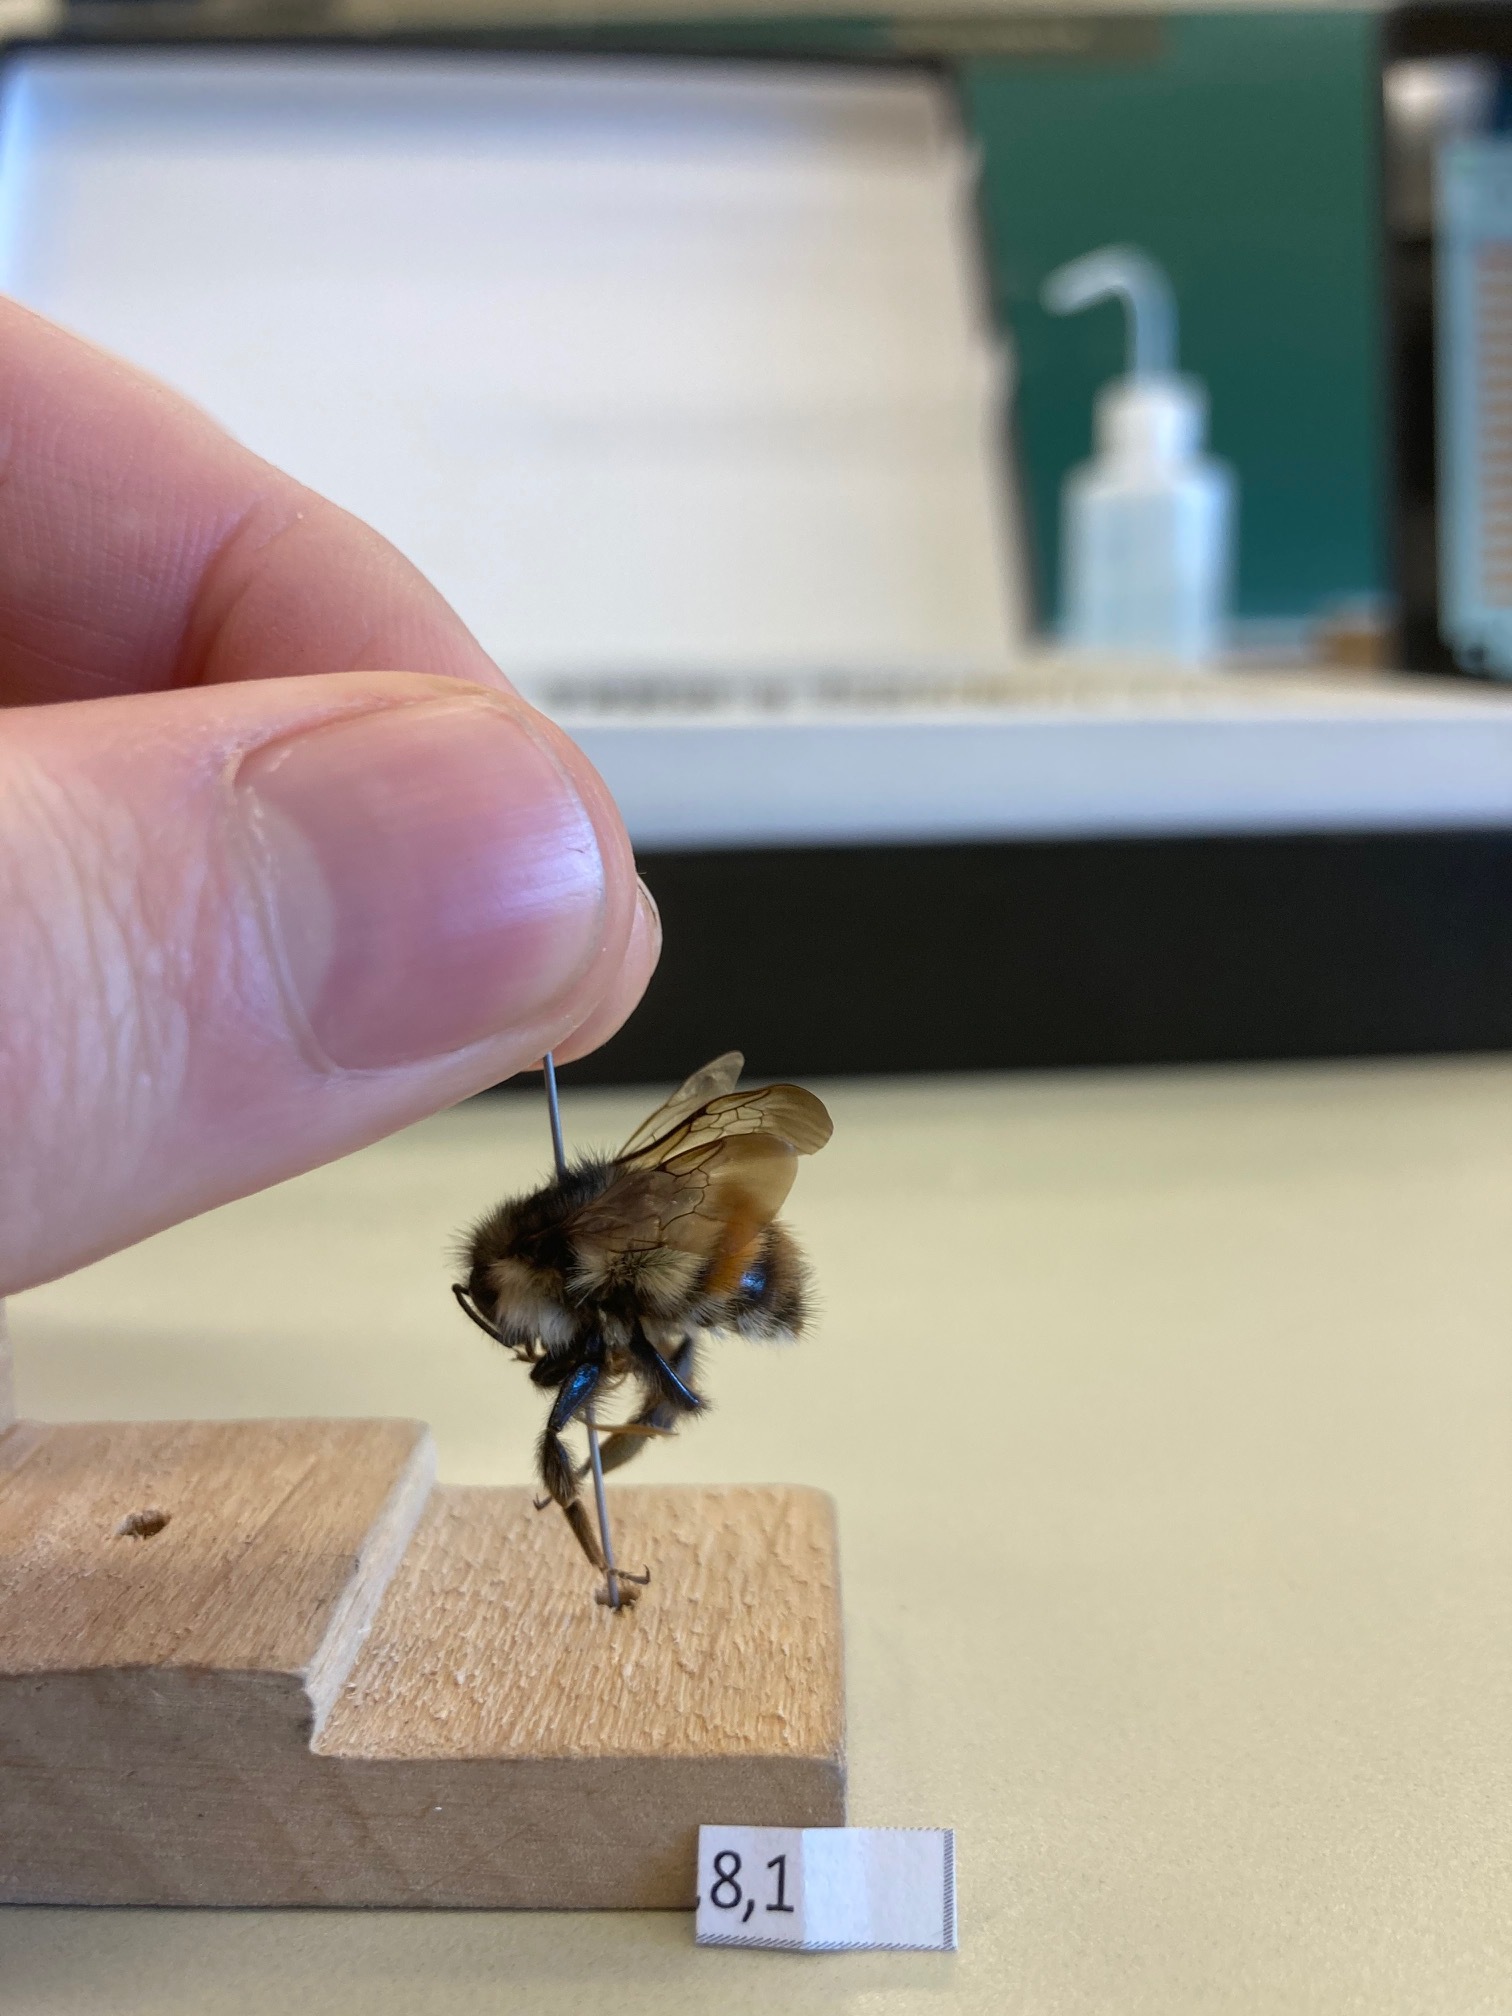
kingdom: Animalia
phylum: Arthropoda
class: Insecta
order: Hymenoptera
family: Apidae
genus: Bombus
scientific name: Bombus flavifrons
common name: Yellow head bumble bee
